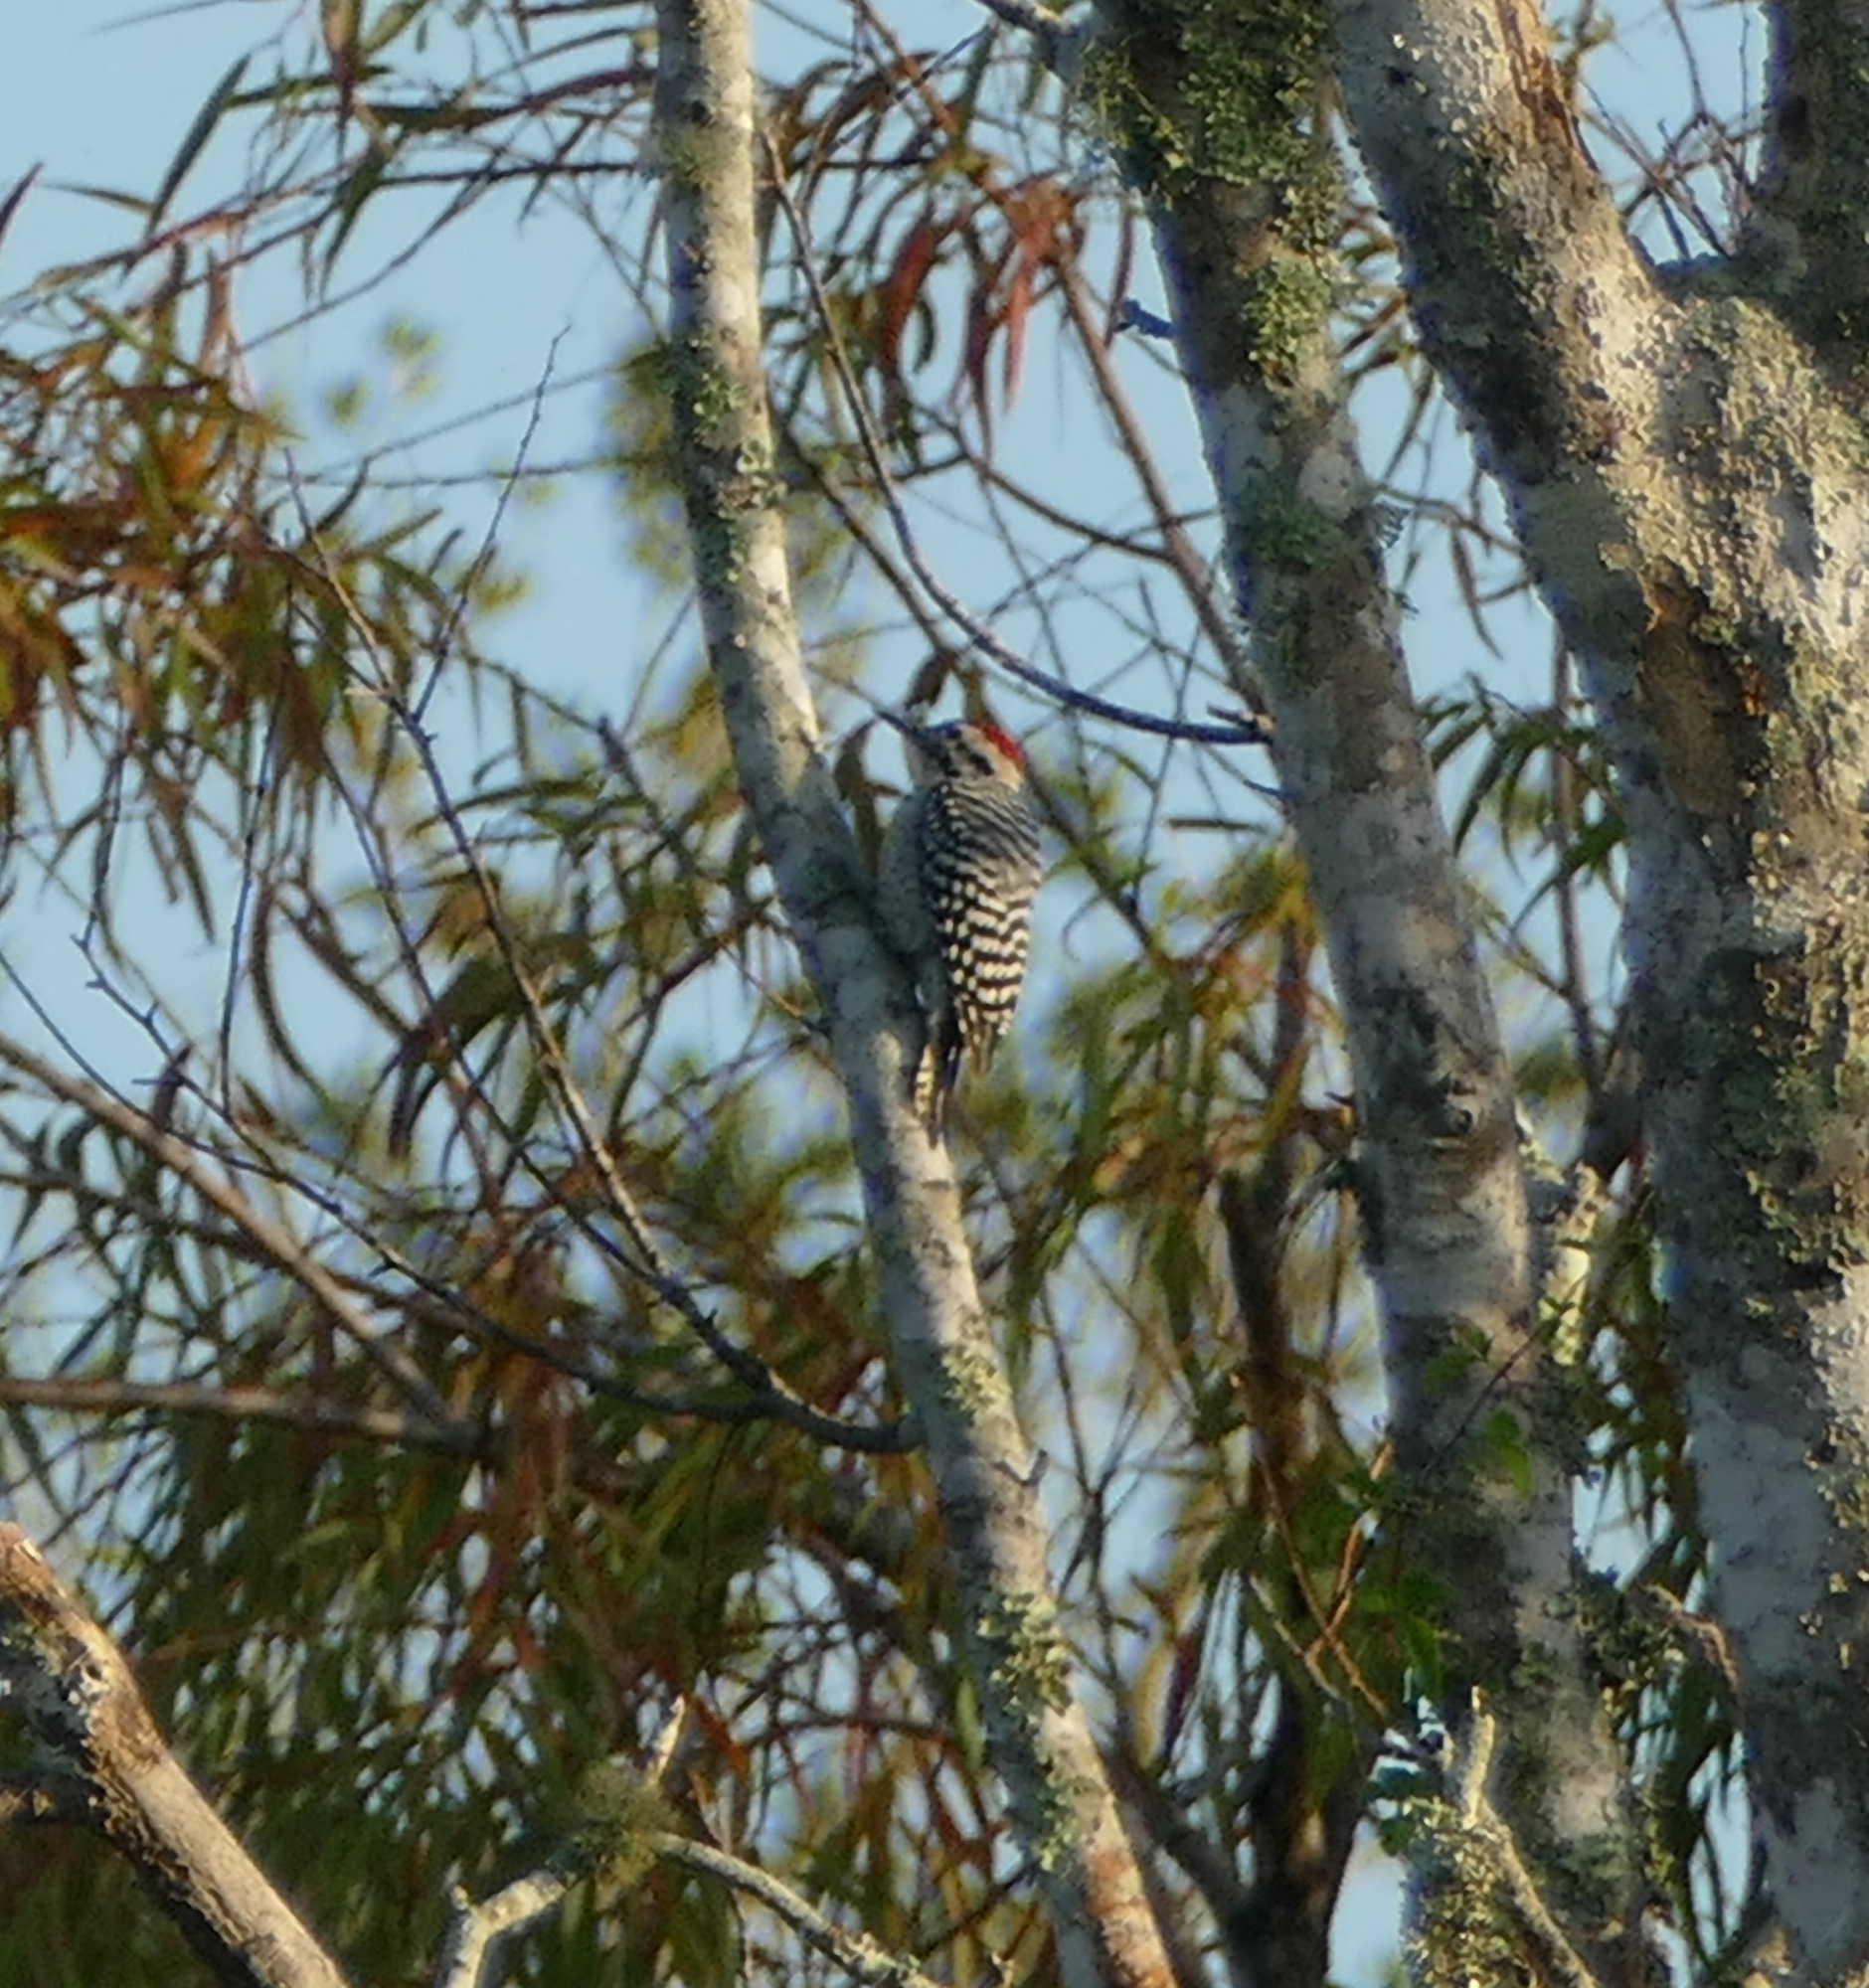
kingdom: Animalia
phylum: Chordata
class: Aves
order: Piciformes
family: Picidae
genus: Dryobates
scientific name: Dryobates scalaris
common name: Ladder-backed woodpecker
